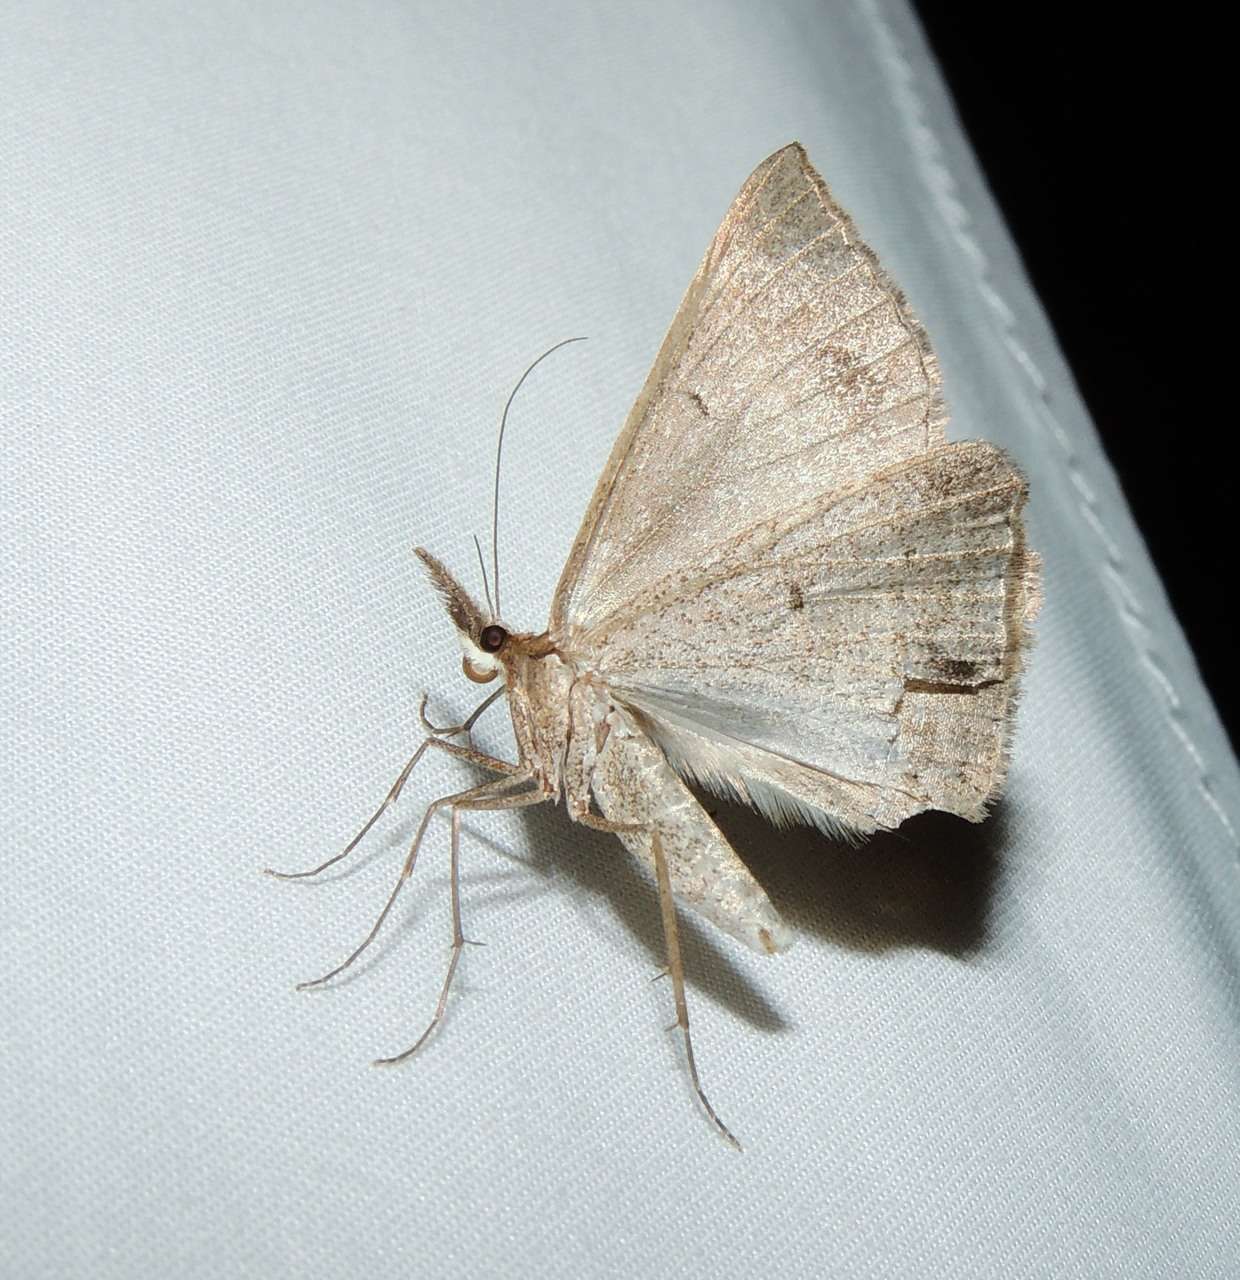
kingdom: Animalia
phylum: Arthropoda
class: Insecta
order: Lepidoptera
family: Geometridae
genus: Epidesmia
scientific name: Epidesmia hypenaria
